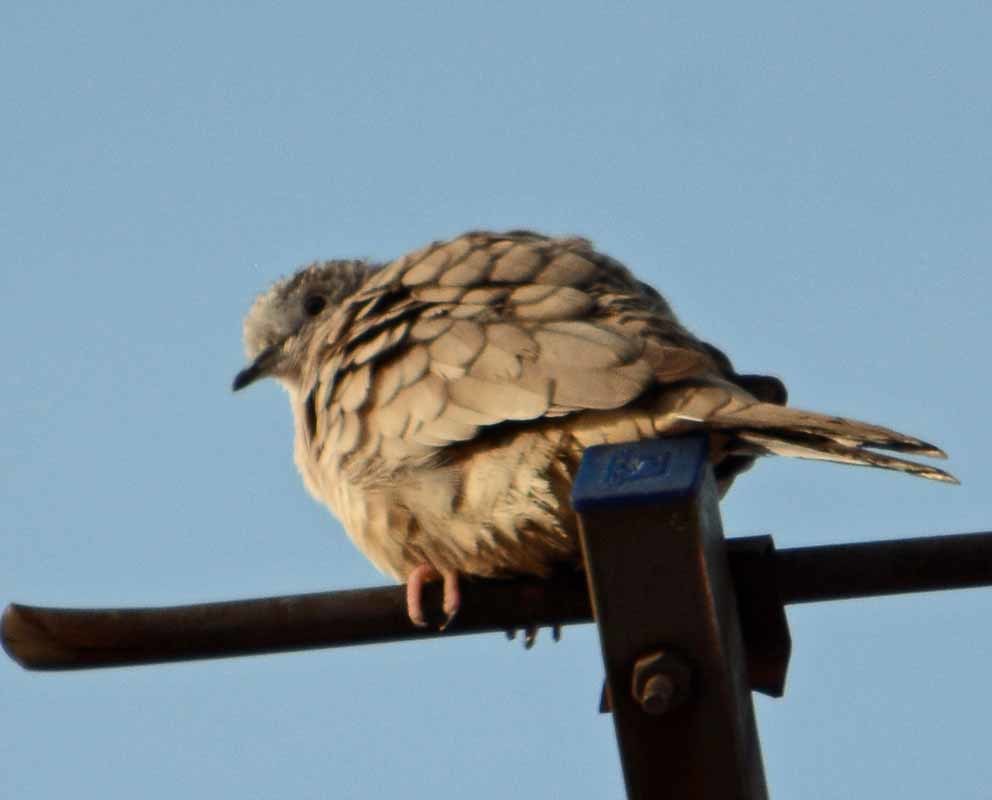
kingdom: Animalia
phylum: Chordata
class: Aves
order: Columbiformes
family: Columbidae
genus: Columbina
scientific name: Columbina inca
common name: Inca dove
